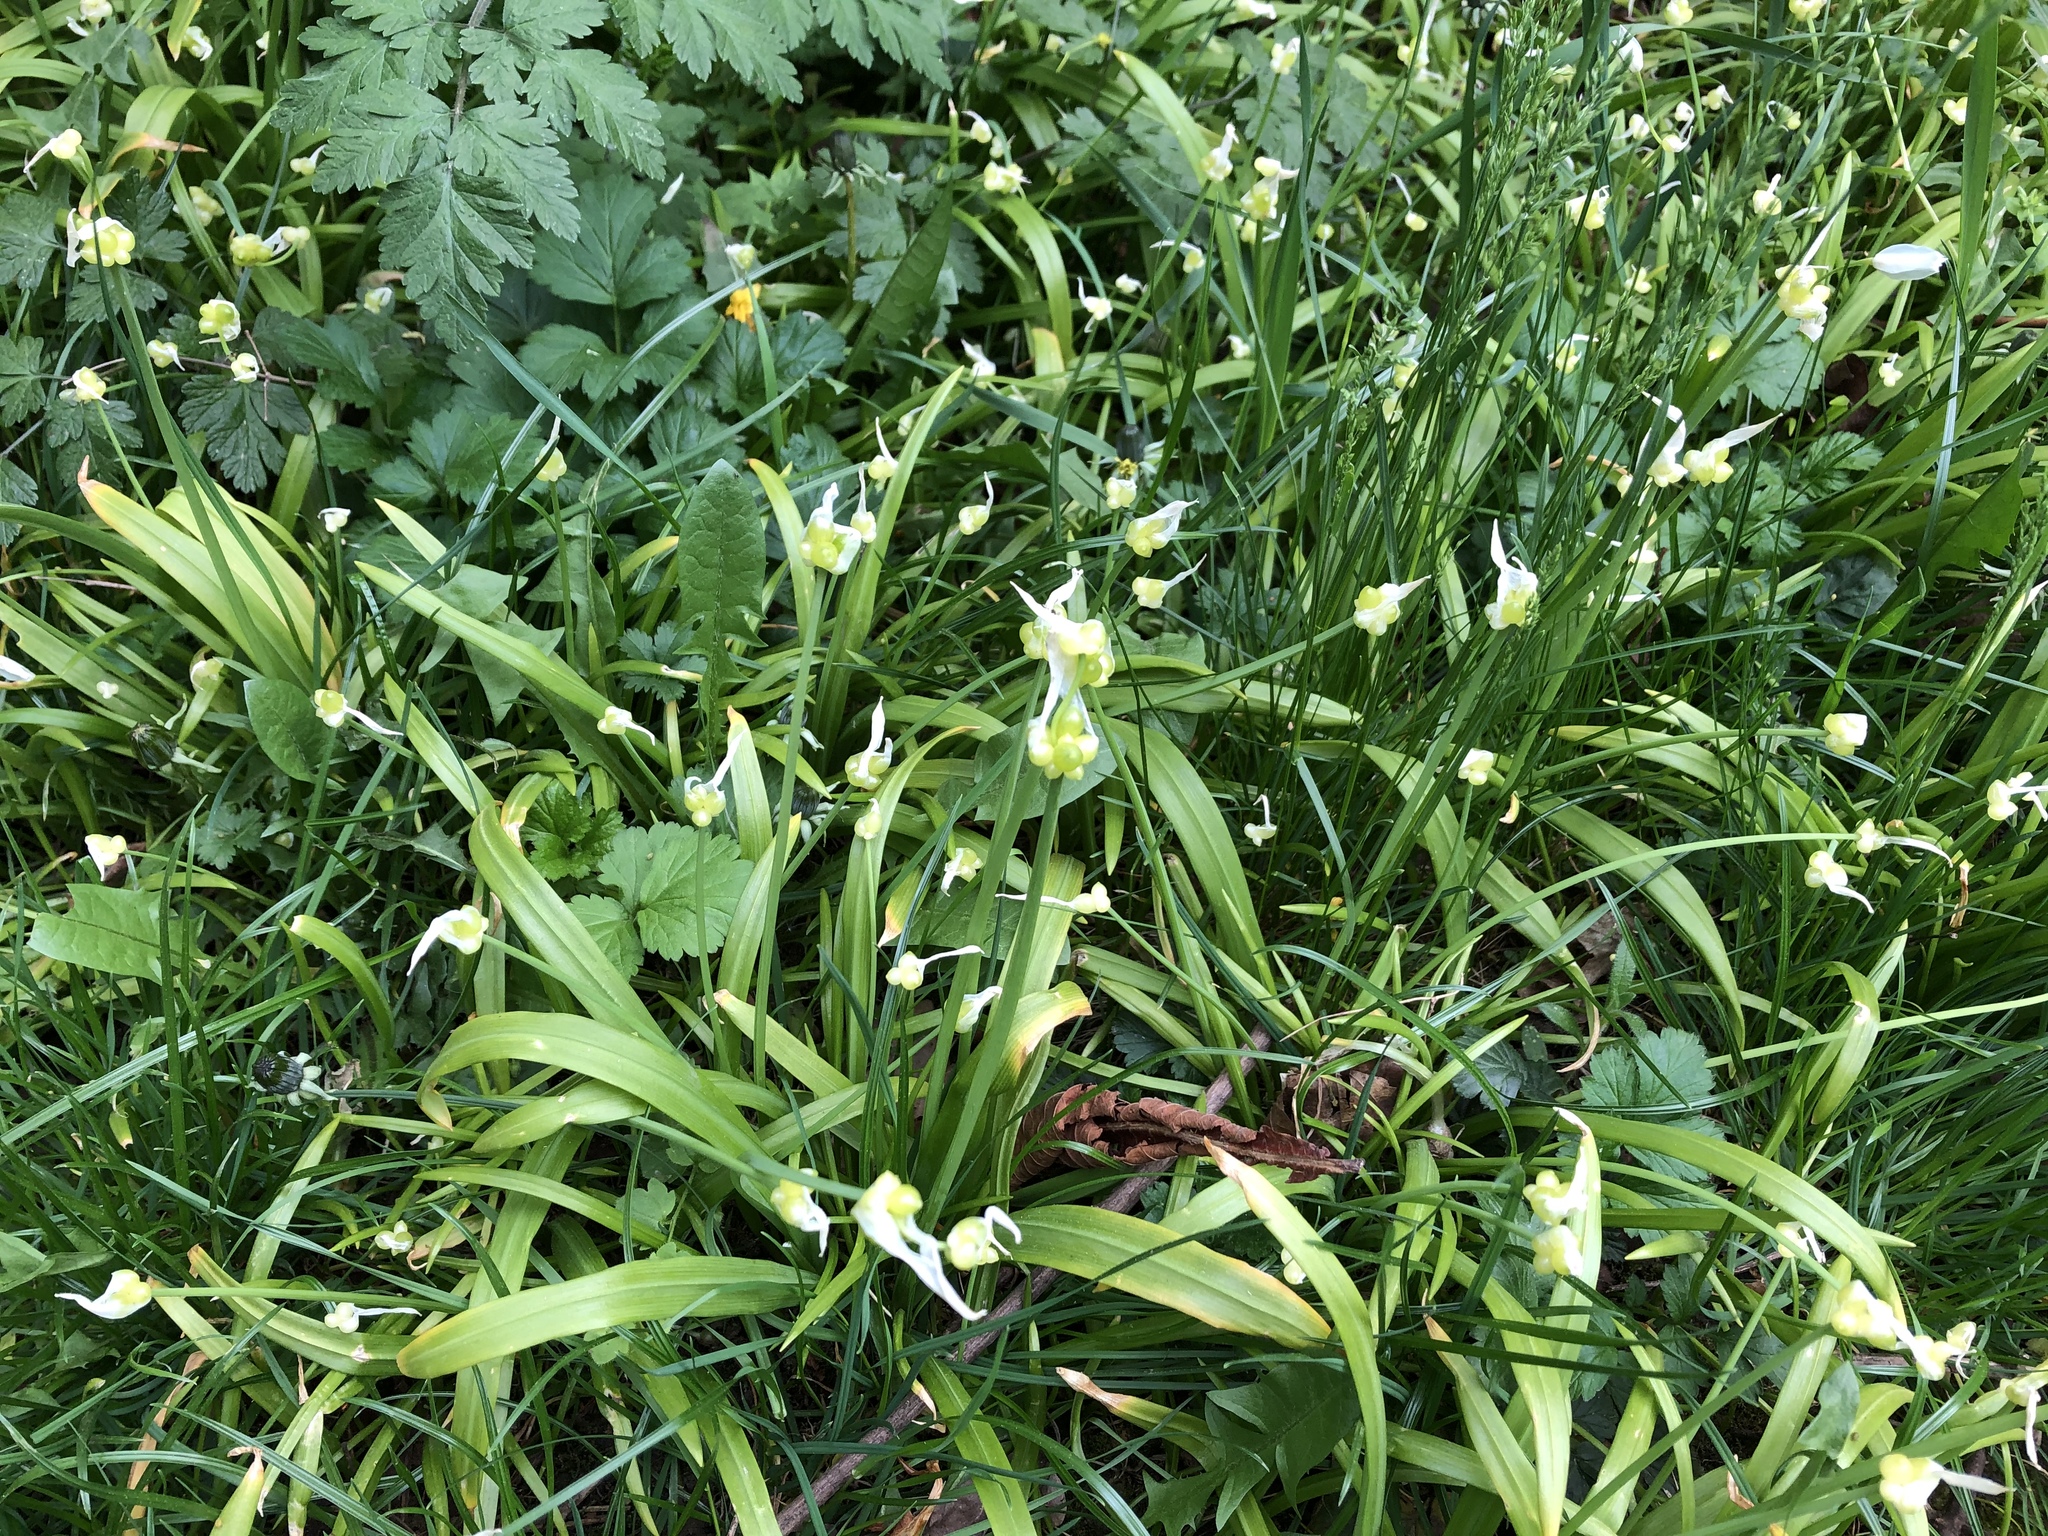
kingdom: Plantae
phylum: Tracheophyta
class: Liliopsida
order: Asparagales
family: Amaryllidaceae
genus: Allium
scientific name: Allium paradoxum
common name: Few-flowered garlic
